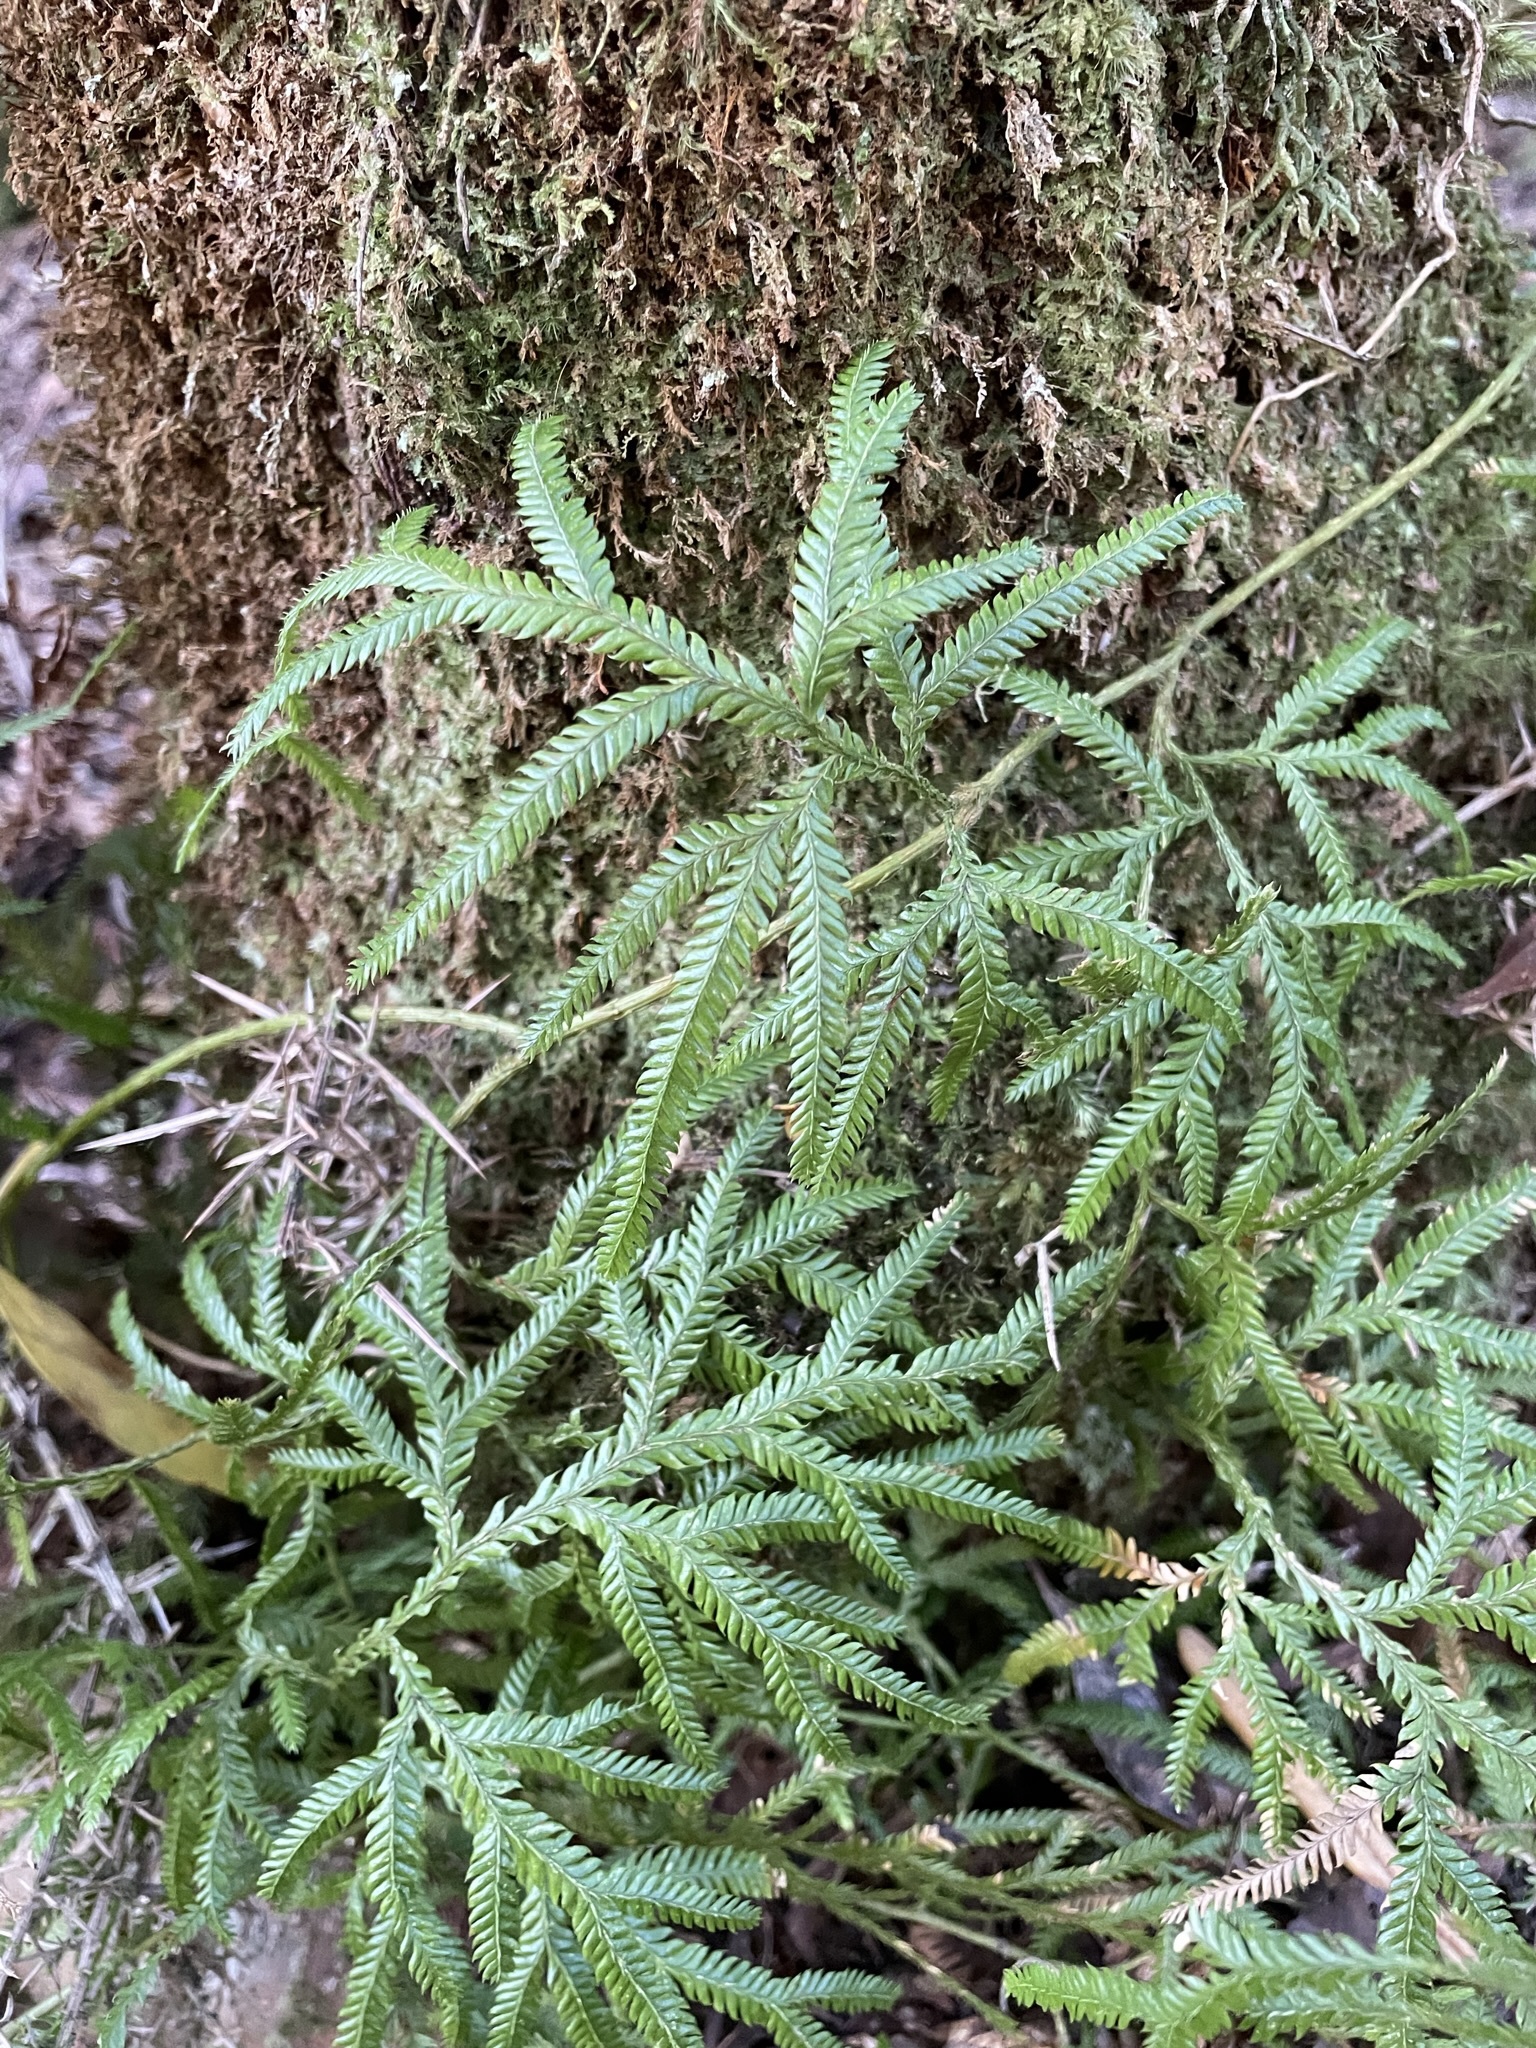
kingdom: Plantae
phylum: Tracheophyta
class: Lycopodiopsida
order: Lycopodiales
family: Lycopodiaceae
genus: Lycopodium
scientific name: Lycopodium volubile
